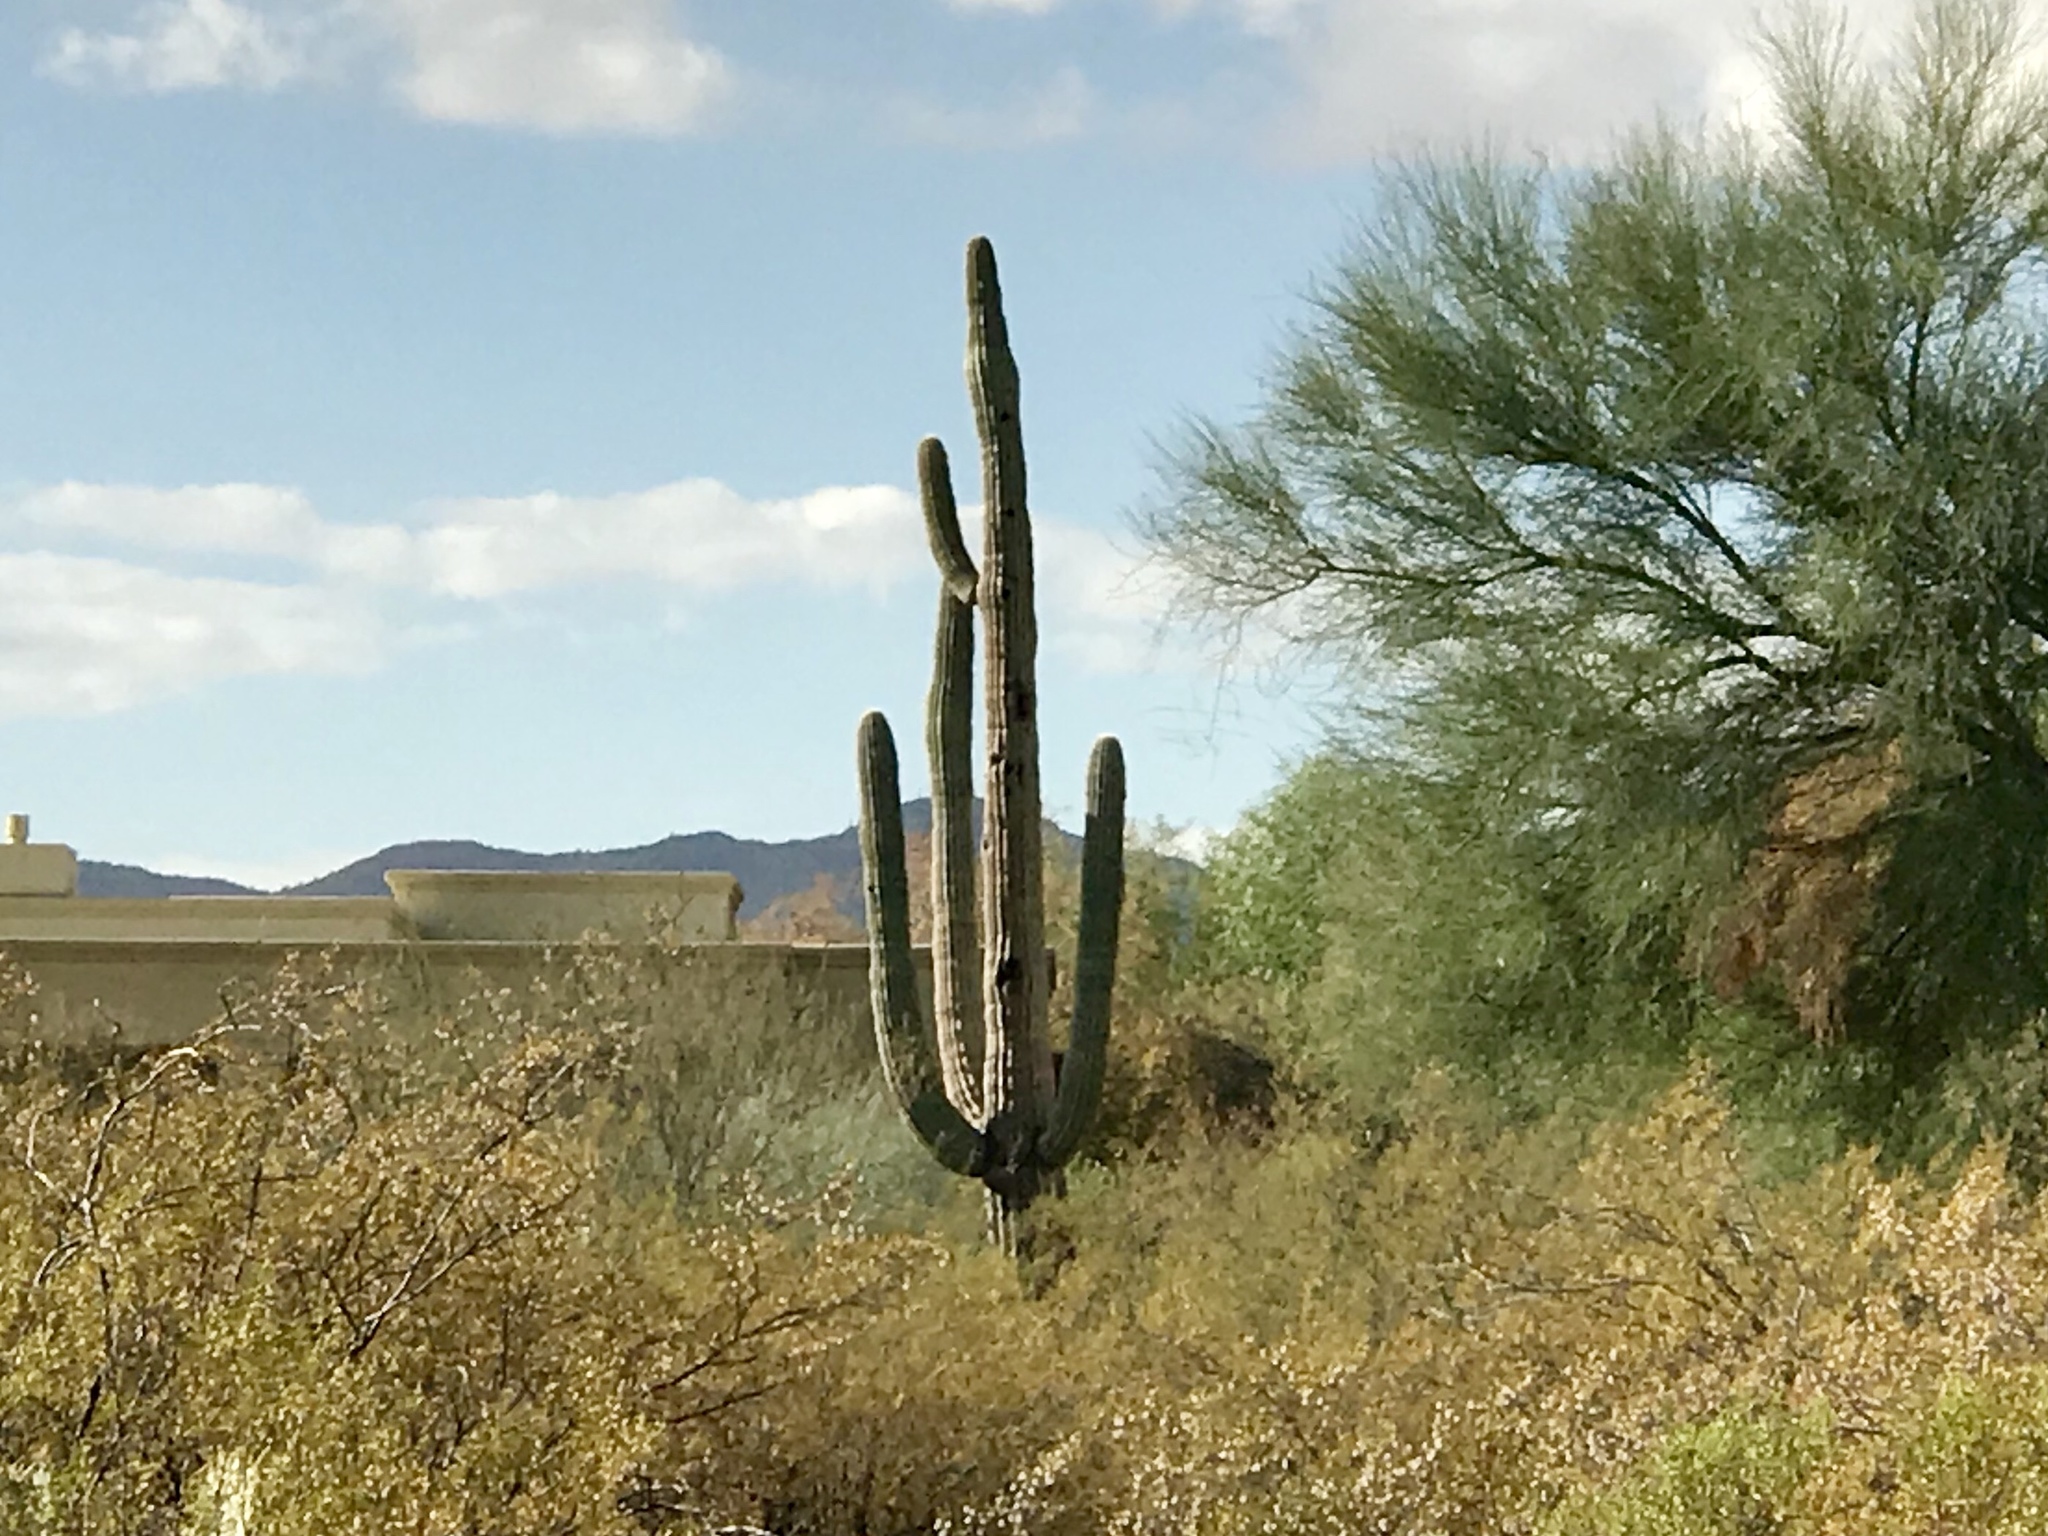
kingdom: Plantae
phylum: Tracheophyta
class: Magnoliopsida
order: Caryophyllales
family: Cactaceae
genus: Carnegiea
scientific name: Carnegiea gigantea
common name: Saguaro
